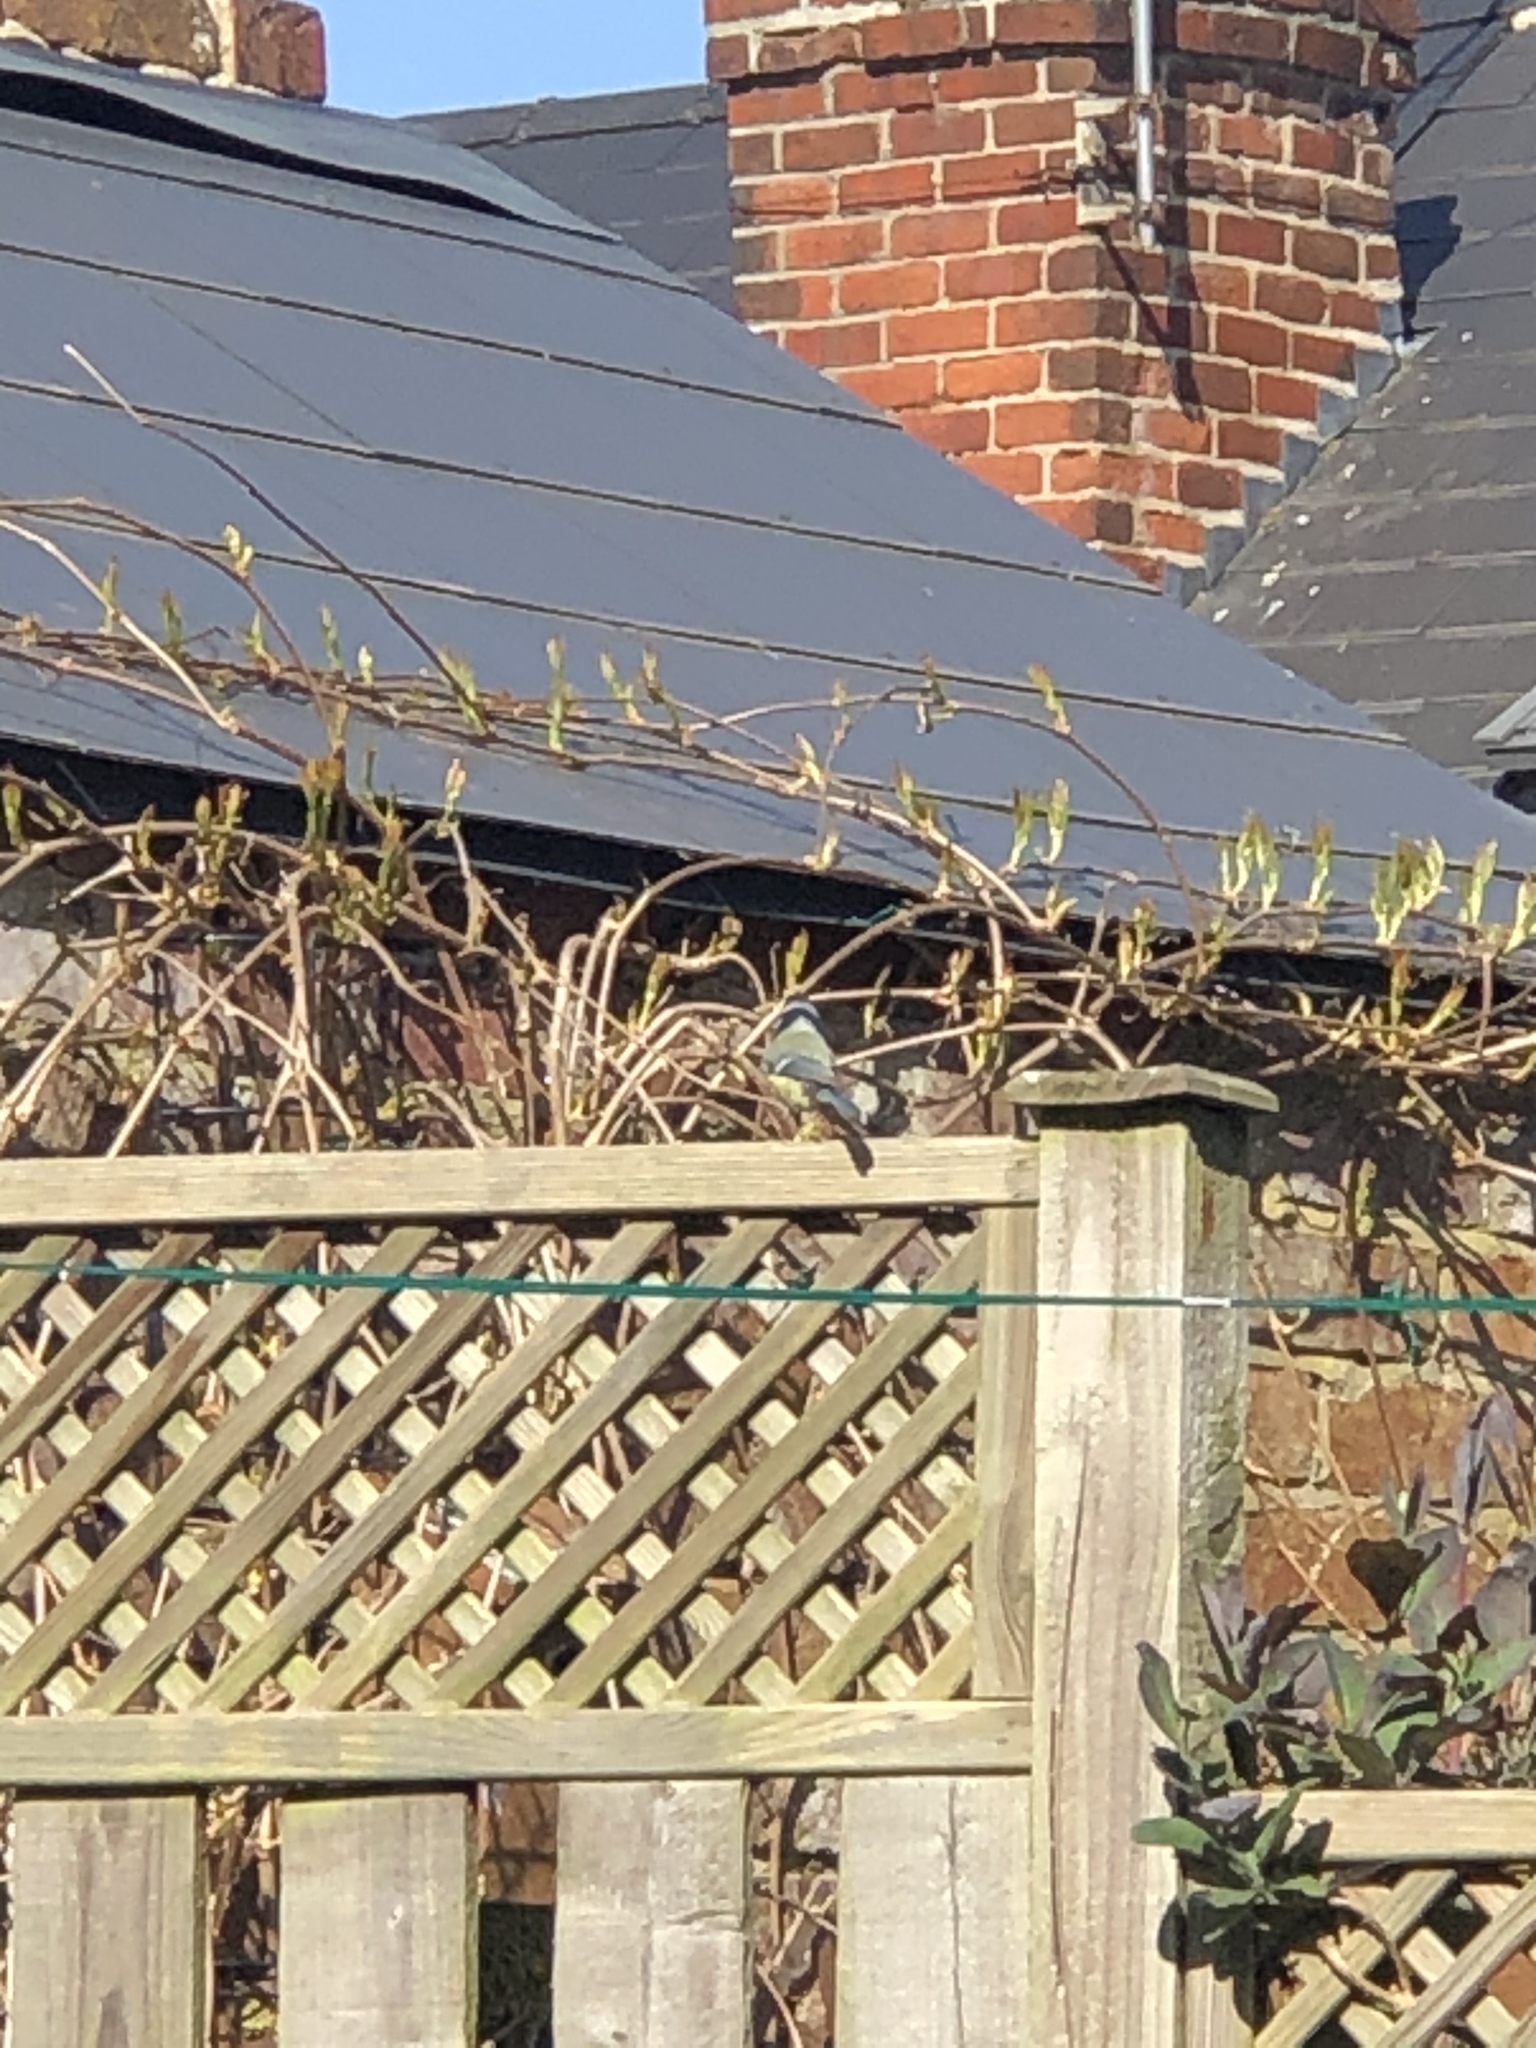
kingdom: Animalia
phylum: Chordata
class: Aves
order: Passeriformes
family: Paridae
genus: Cyanistes
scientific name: Cyanistes caeruleus
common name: Eurasian blue tit
